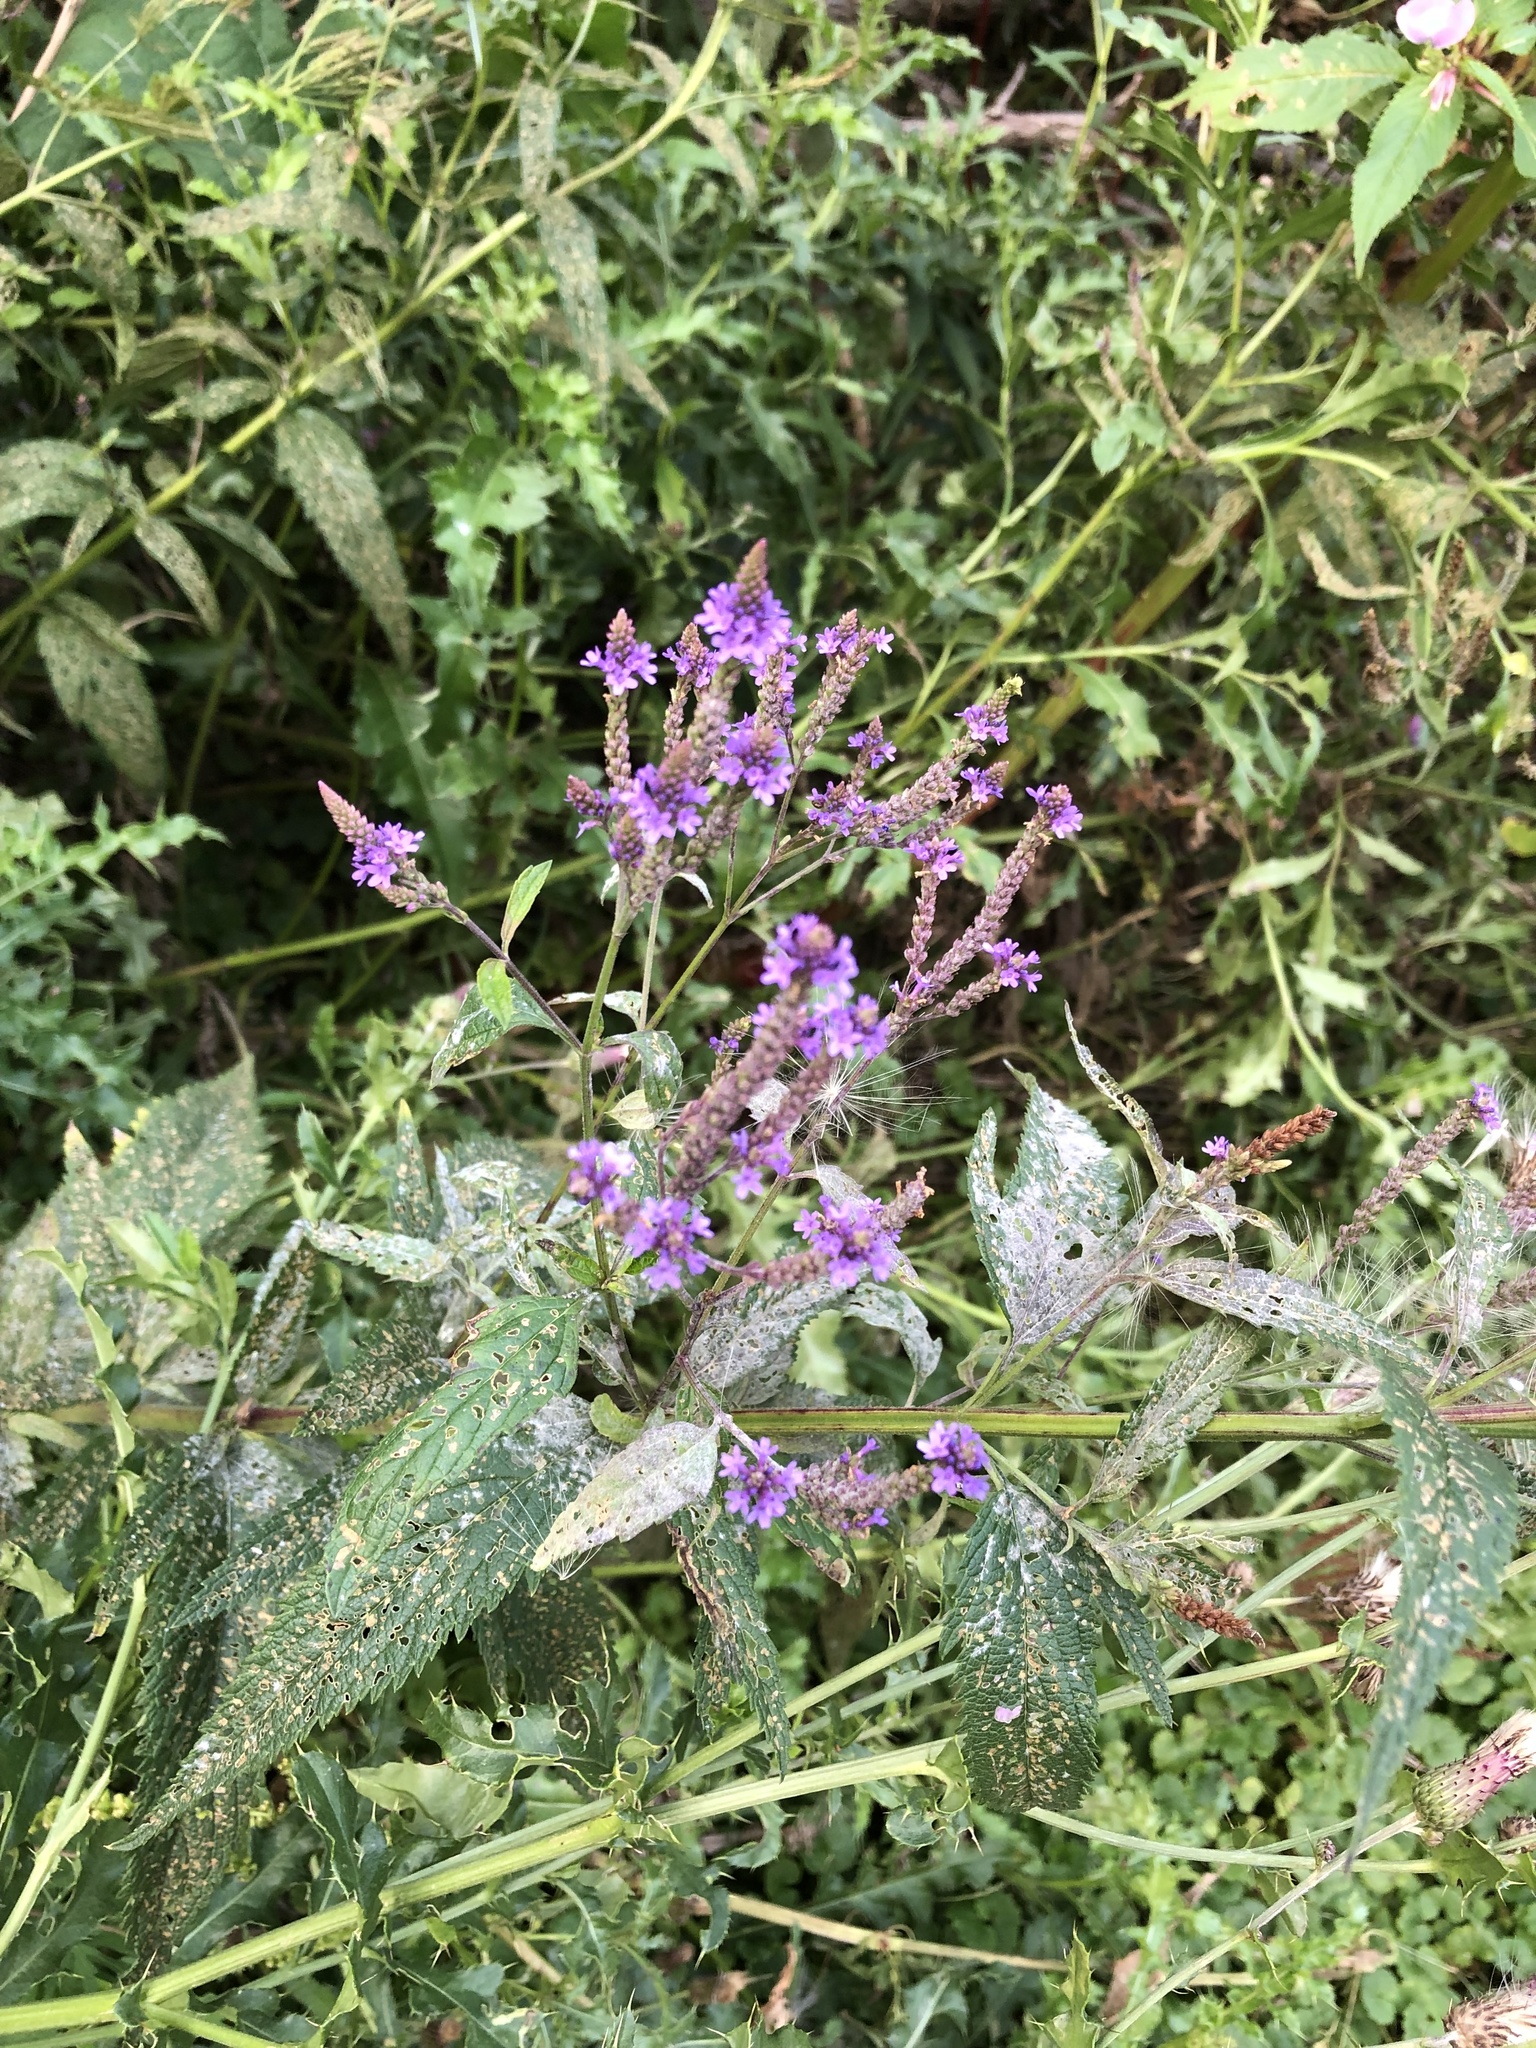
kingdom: Plantae
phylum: Tracheophyta
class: Magnoliopsida
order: Lamiales
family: Verbenaceae
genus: Verbena
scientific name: Verbena hastata
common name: American blue vervain
